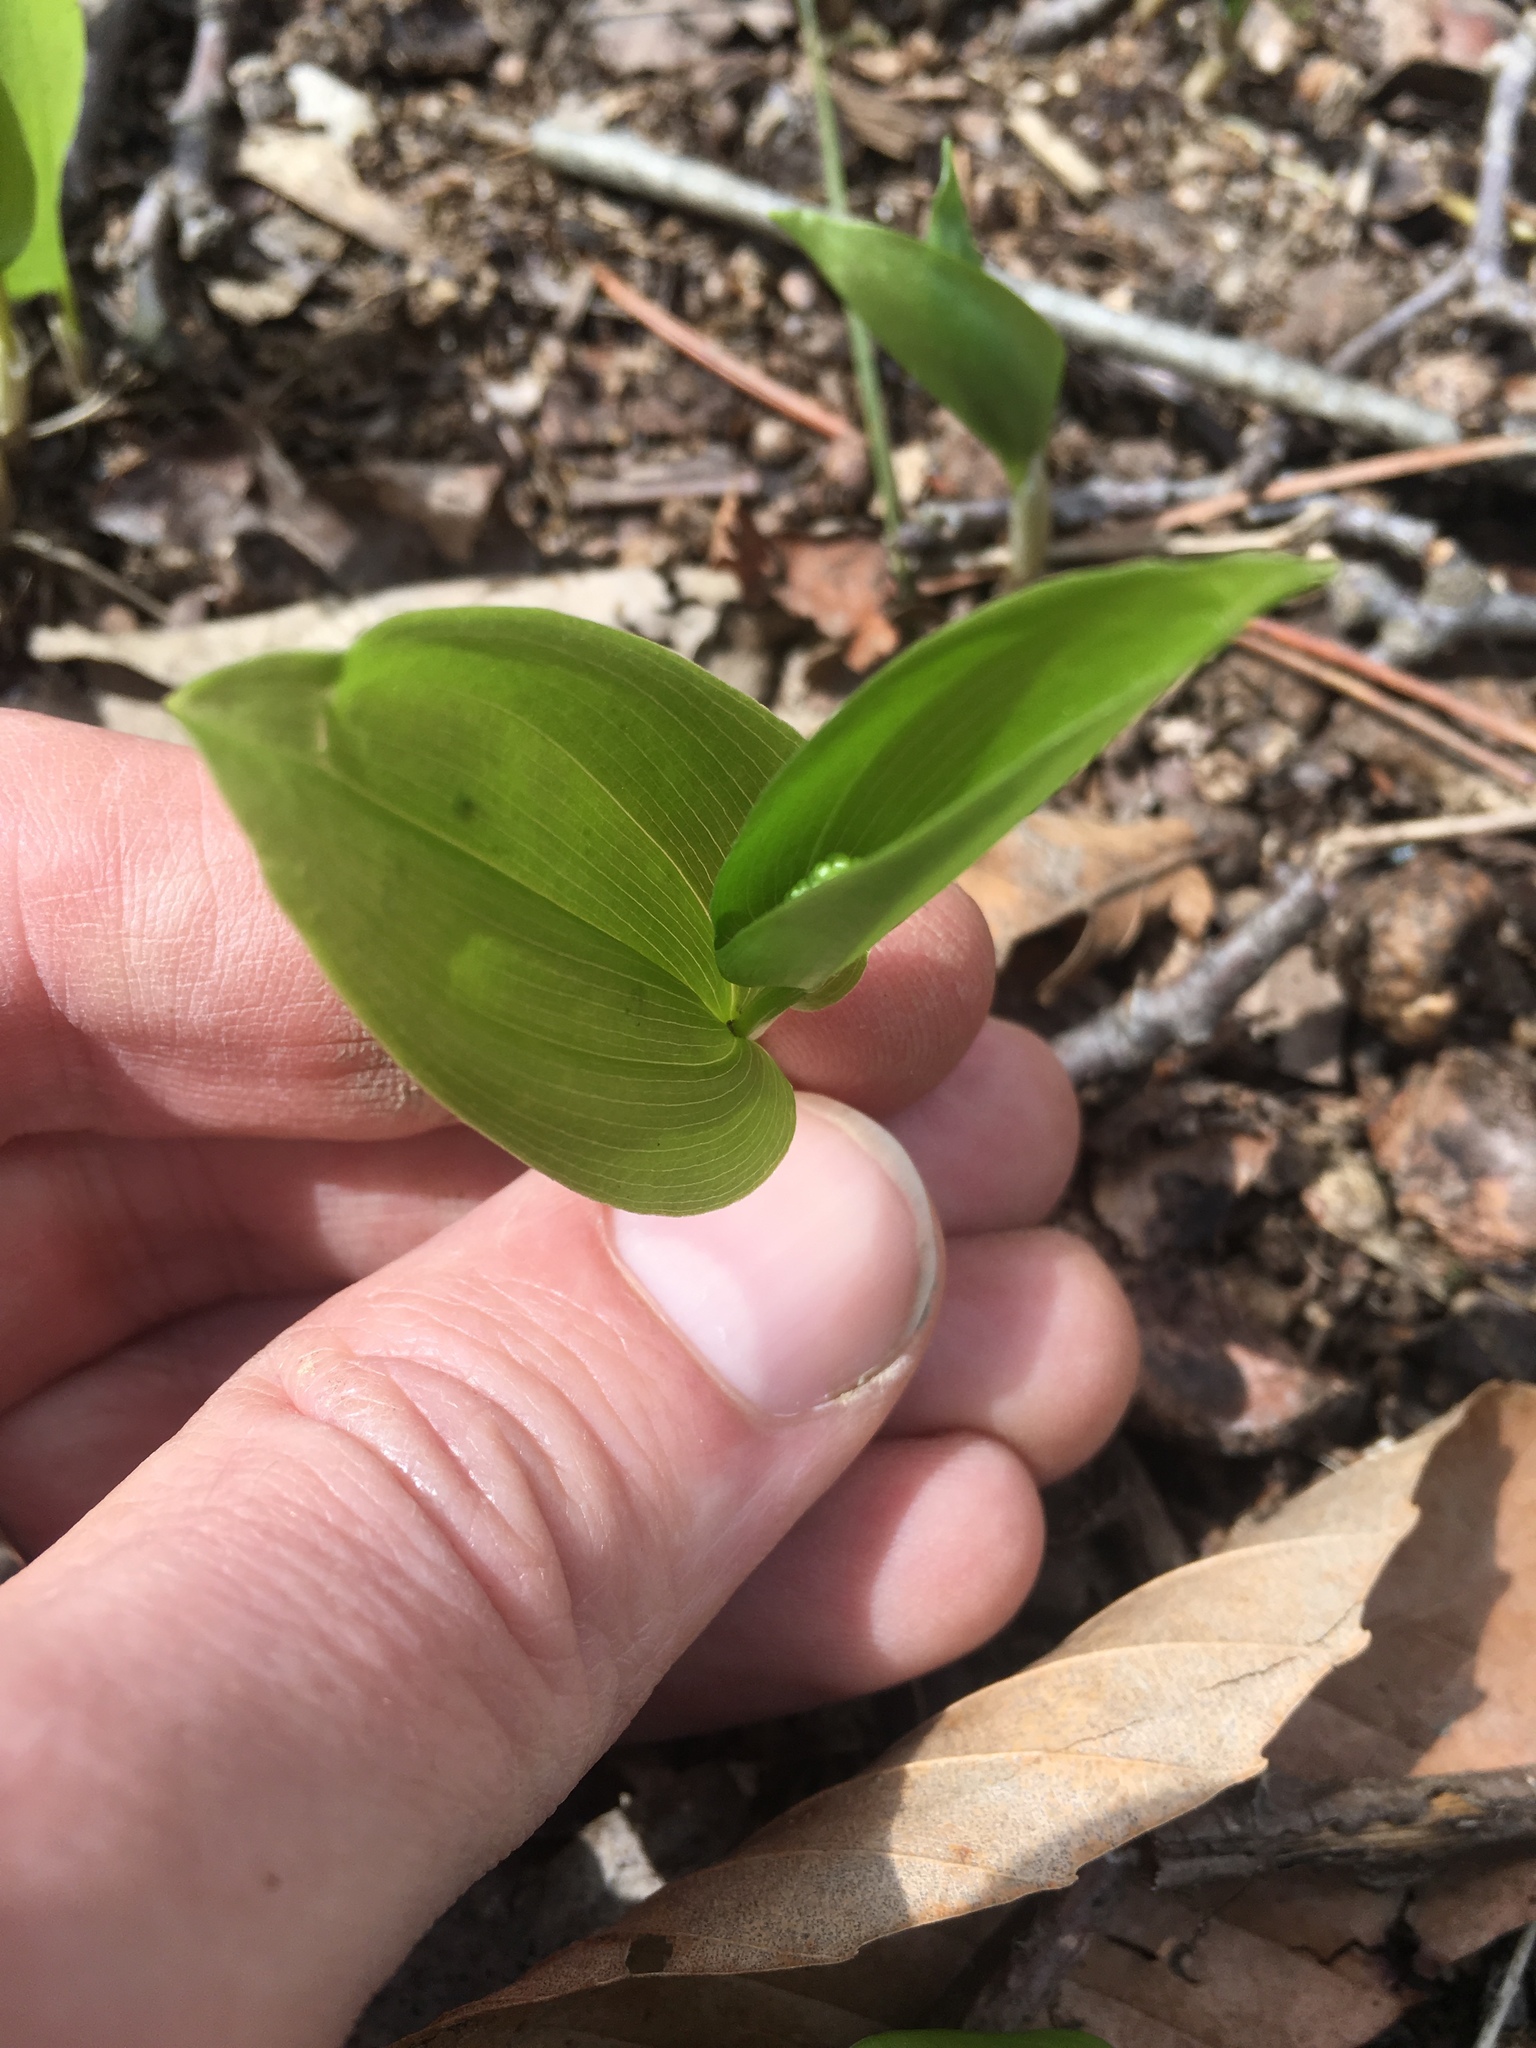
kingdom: Plantae
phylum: Tracheophyta
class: Liliopsida
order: Asparagales
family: Asparagaceae
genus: Maianthemum
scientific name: Maianthemum canadense
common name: False lily-of-the-valley
